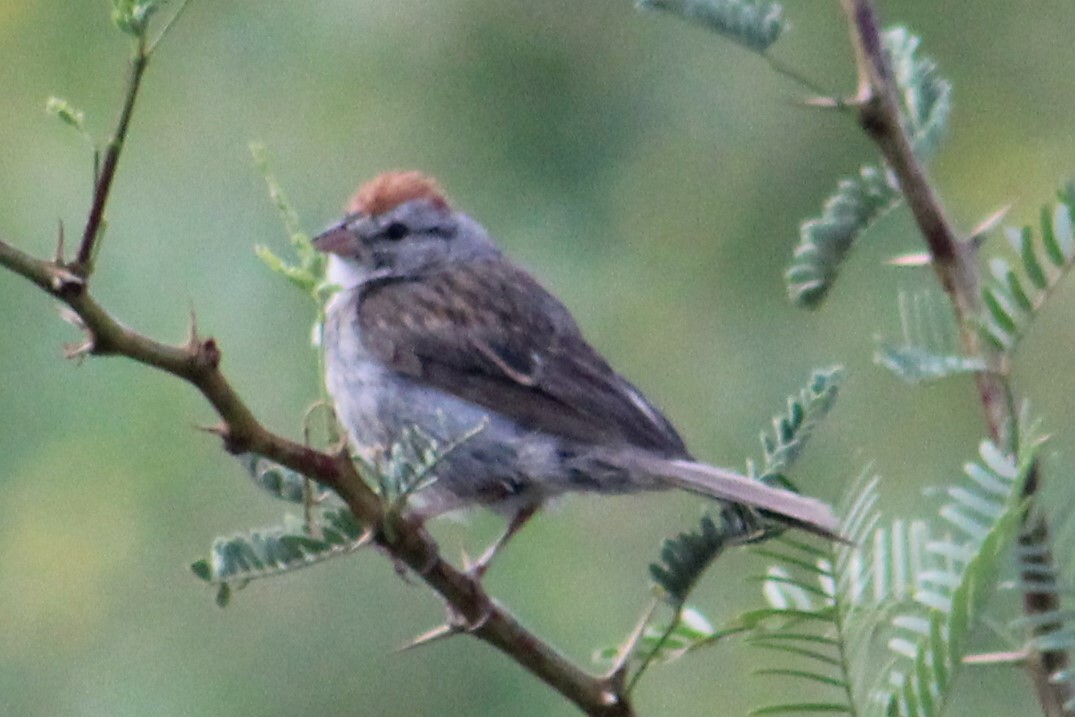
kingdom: Animalia
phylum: Chordata
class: Aves
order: Passeriformes
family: Passerellidae
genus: Spizella
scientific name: Spizella passerina
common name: Chipping sparrow
